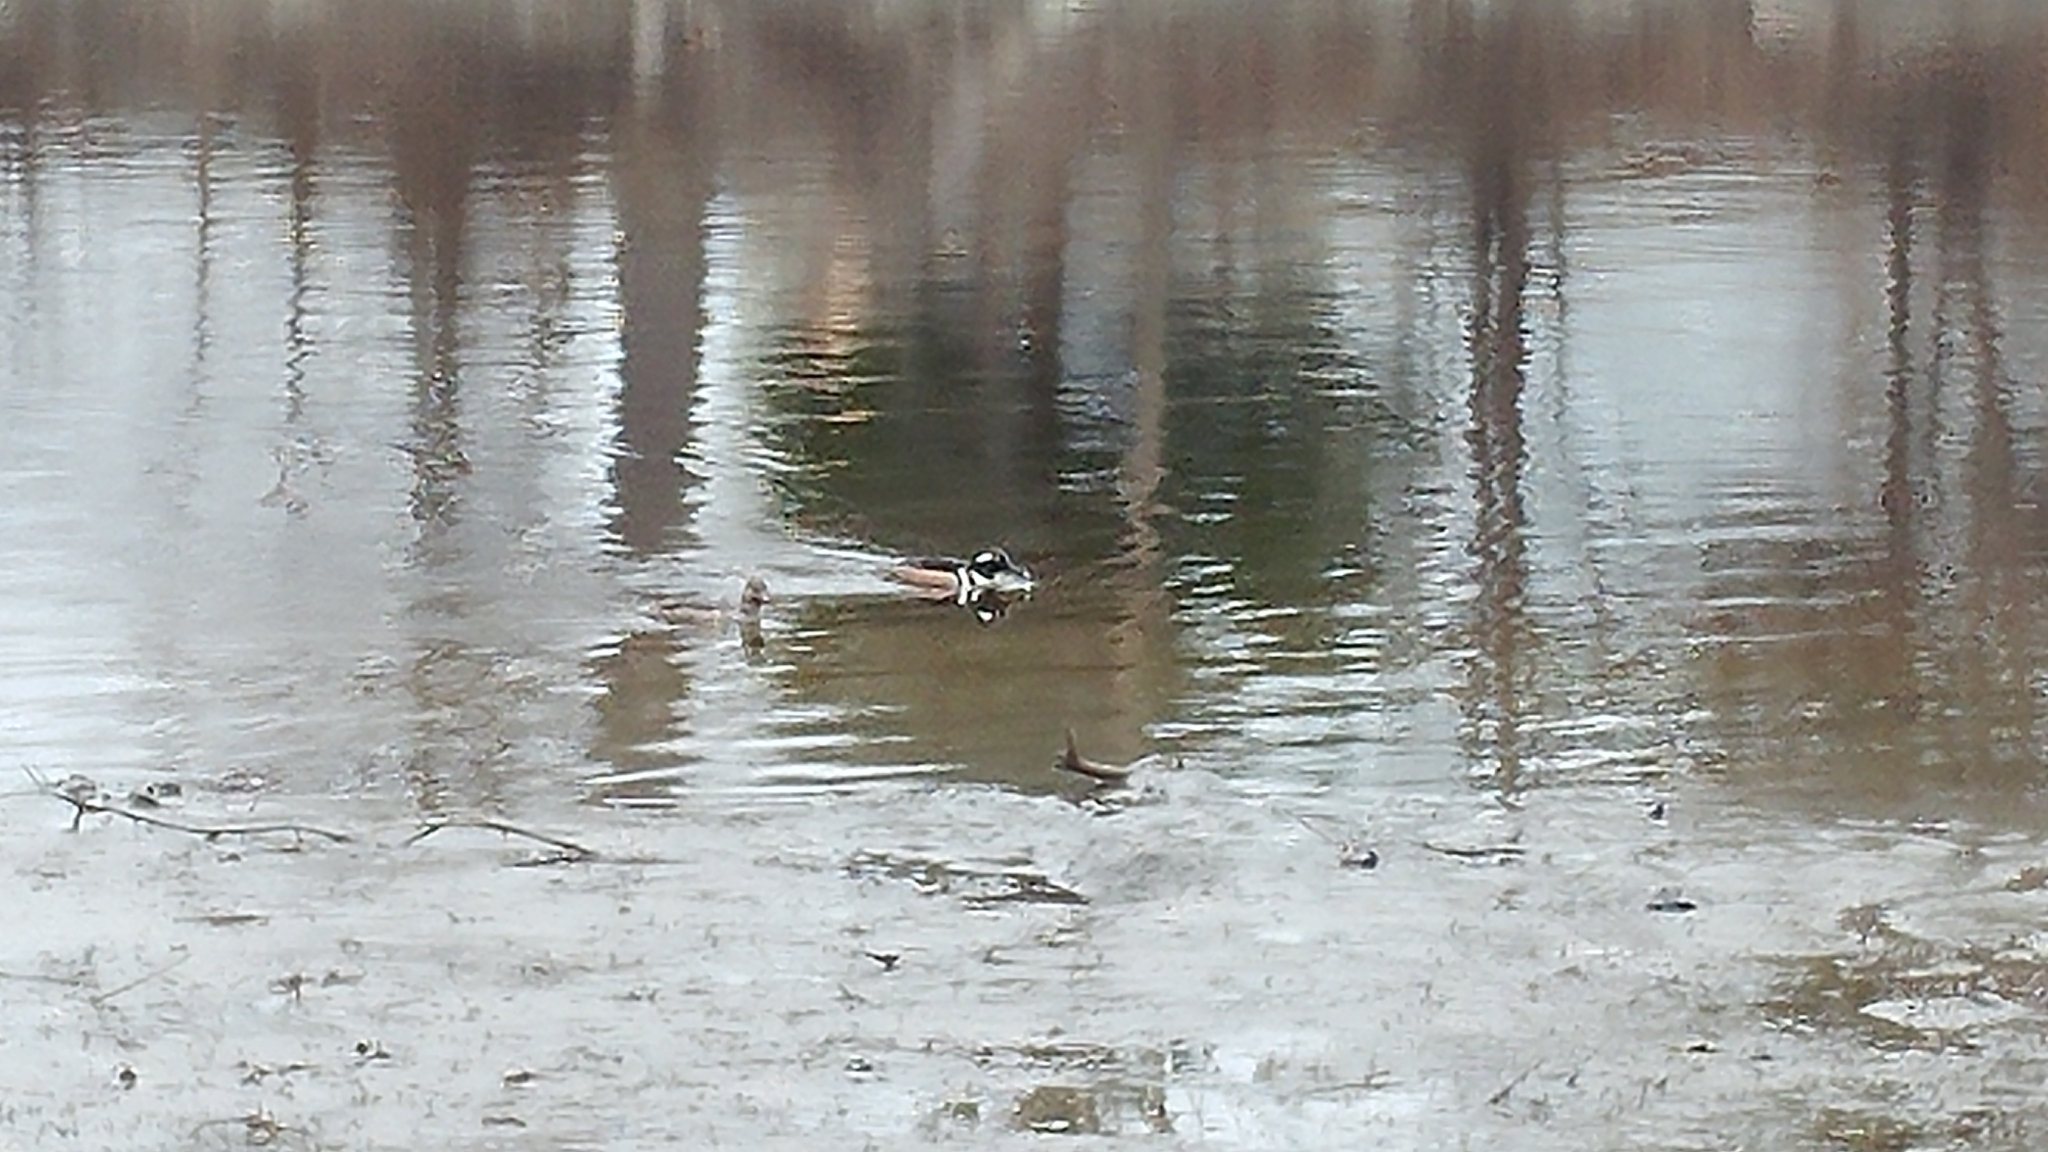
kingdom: Animalia
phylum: Chordata
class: Aves
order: Anseriformes
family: Anatidae
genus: Lophodytes
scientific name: Lophodytes cucullatus
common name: Hooded merganser
